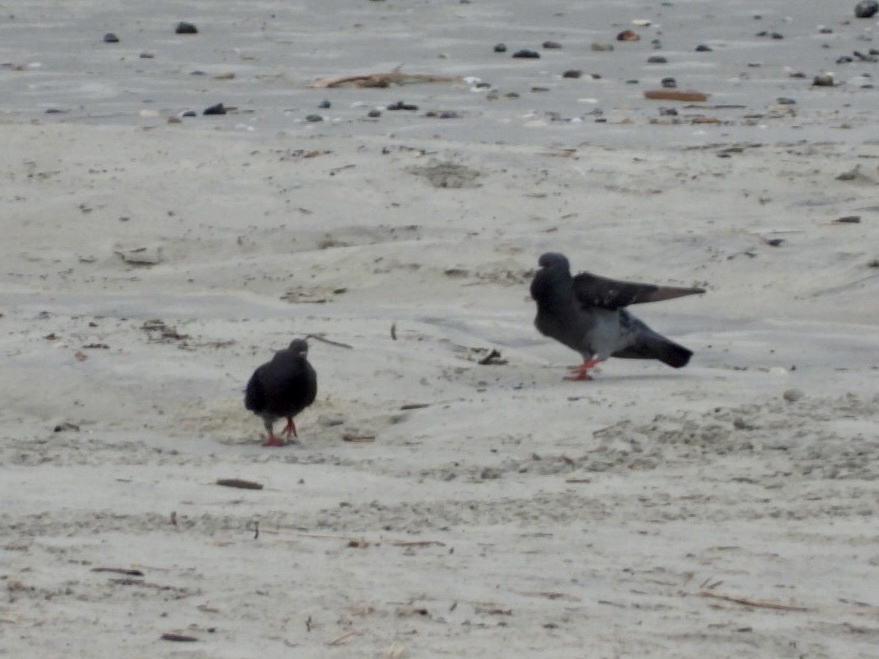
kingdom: Animalia
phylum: Chordata
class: Aves
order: Columbiformes
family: Columbidae
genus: Columba
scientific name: Columba livia
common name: Rock pigeon
